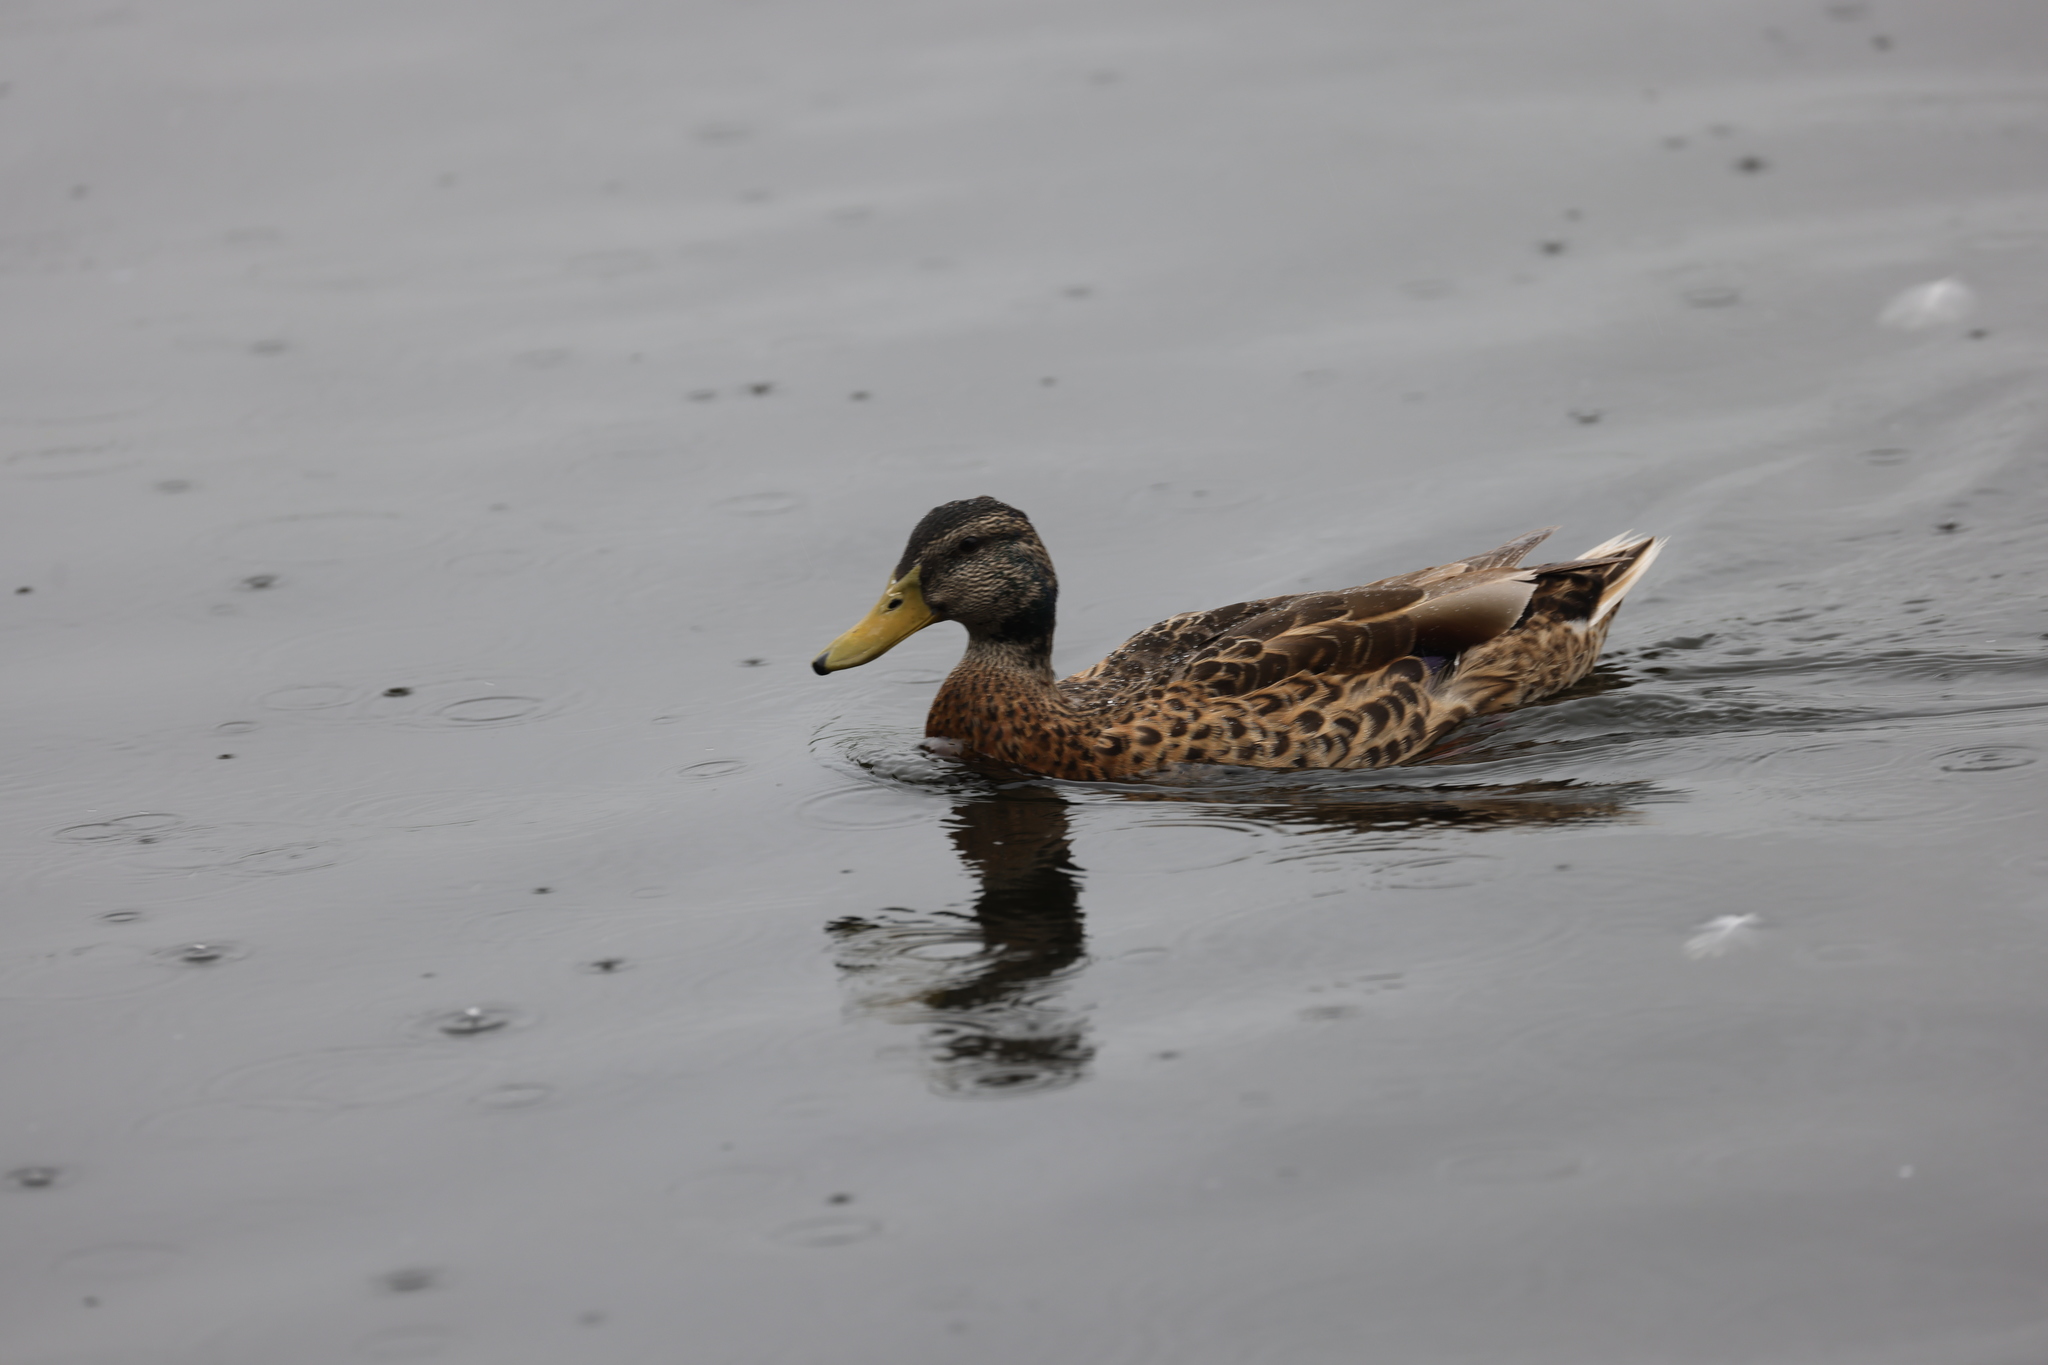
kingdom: Animalia
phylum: Chordata
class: Aves
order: Anseriformes
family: Anatidae
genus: Anas
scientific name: Anas platyrhynchos
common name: Mallard
